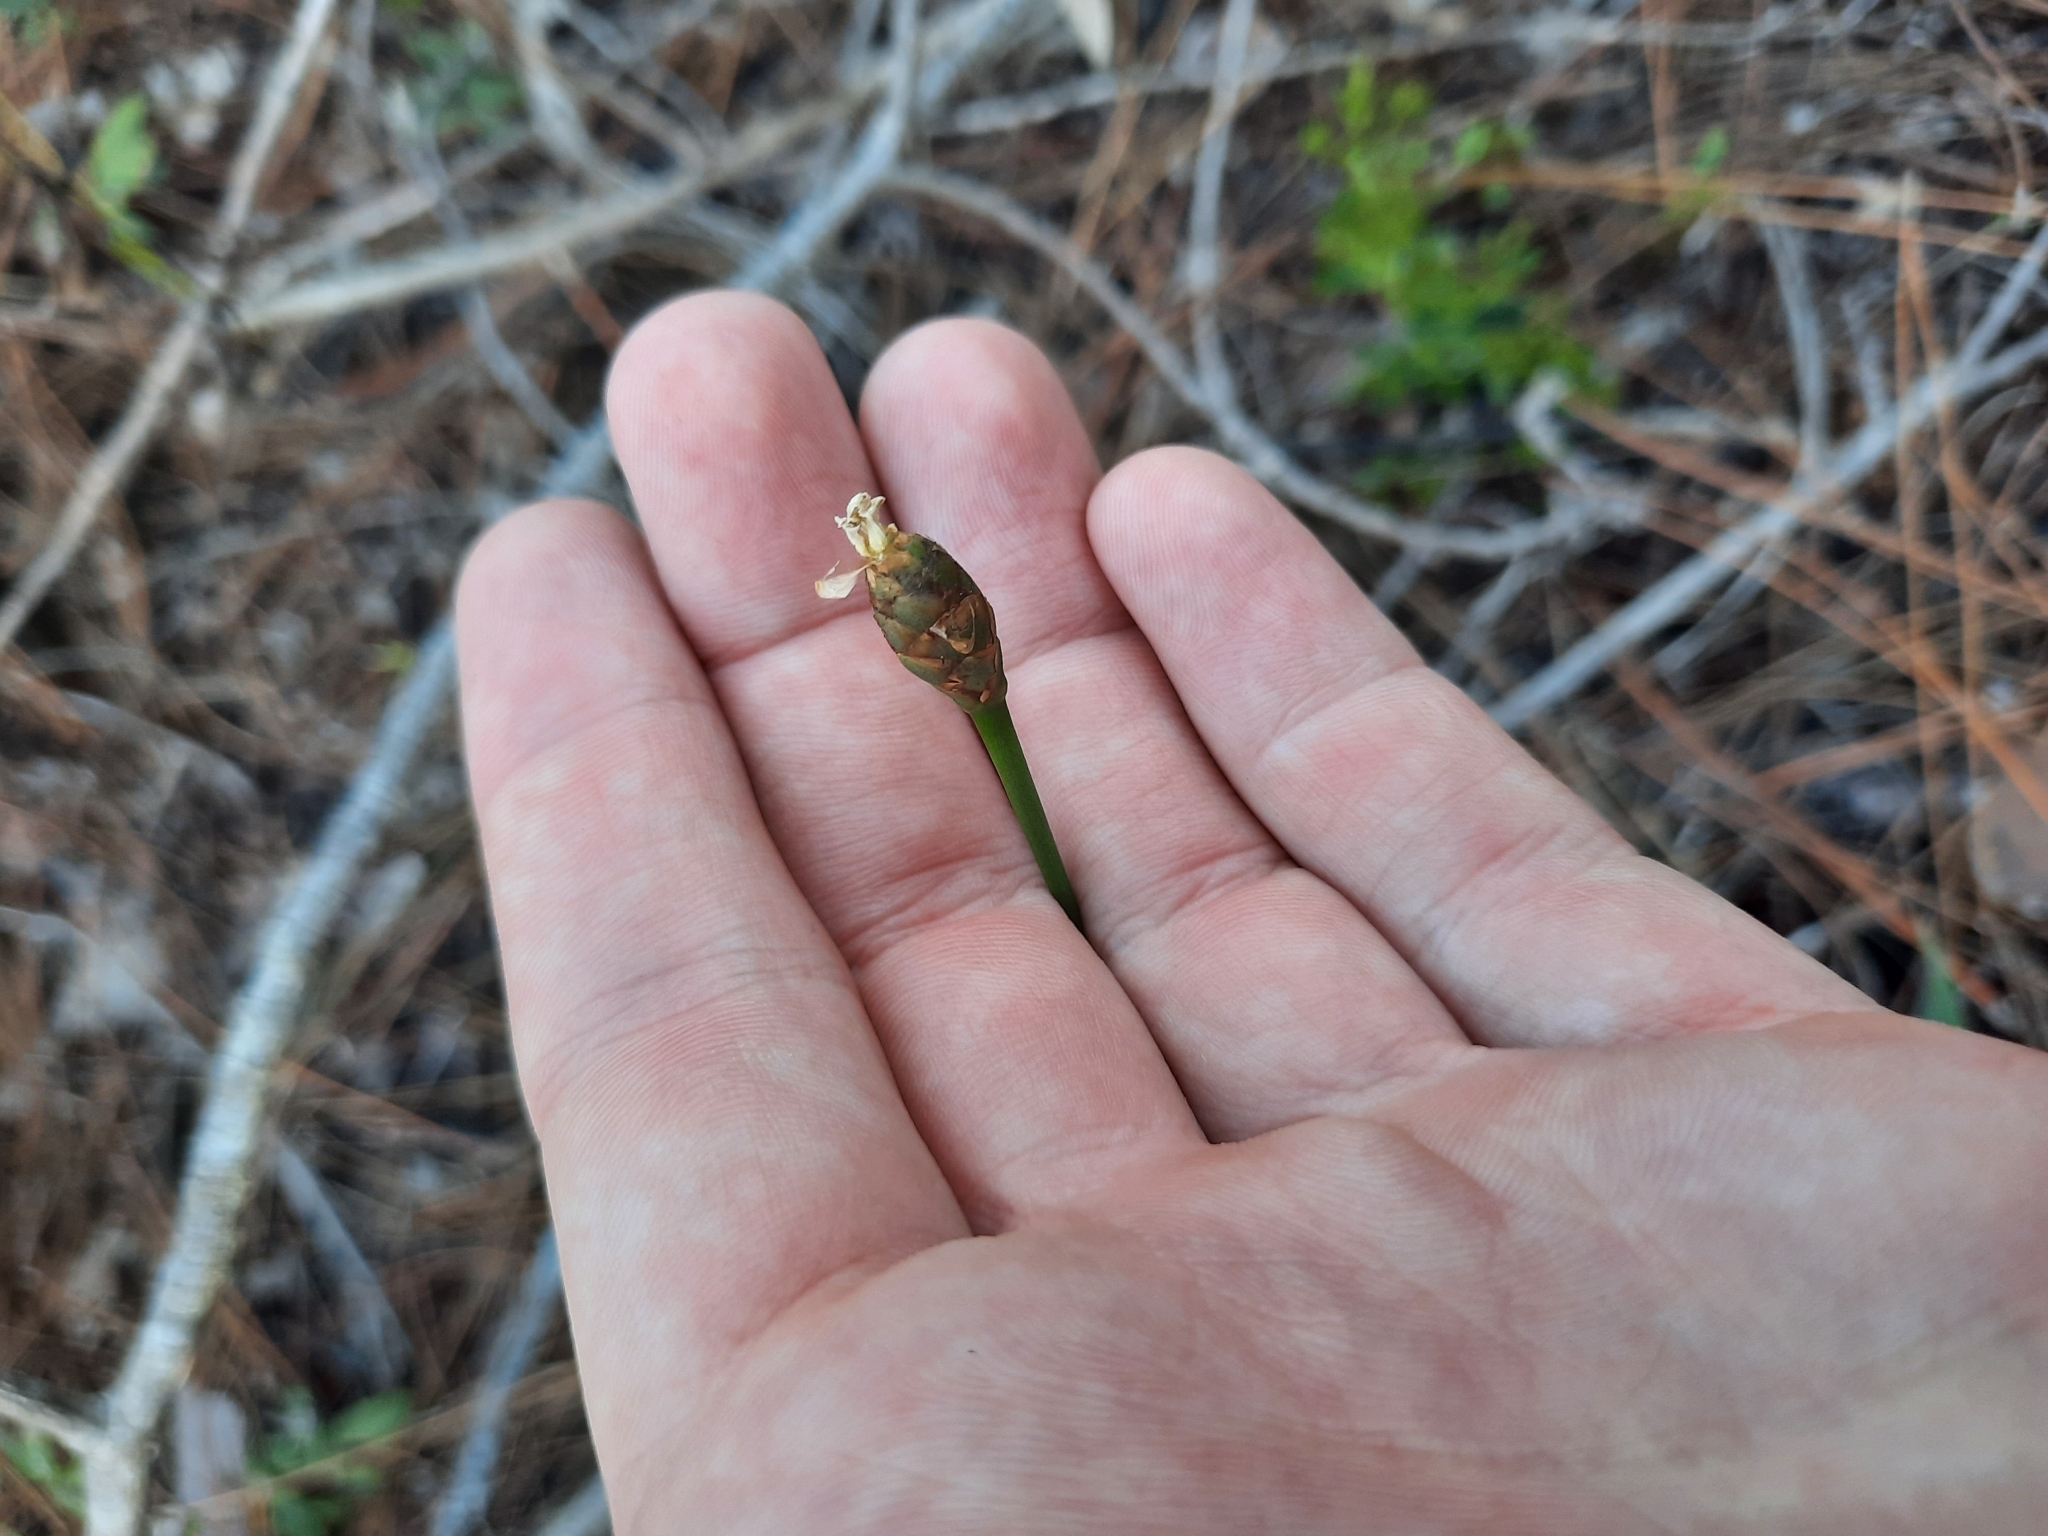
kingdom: Plantae
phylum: Tracheophyta
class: Liliopsida
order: Poales
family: Xyridaceae
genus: Xyris
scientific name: Xyris caroliniana
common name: Carolina yellow-eyed-grass
